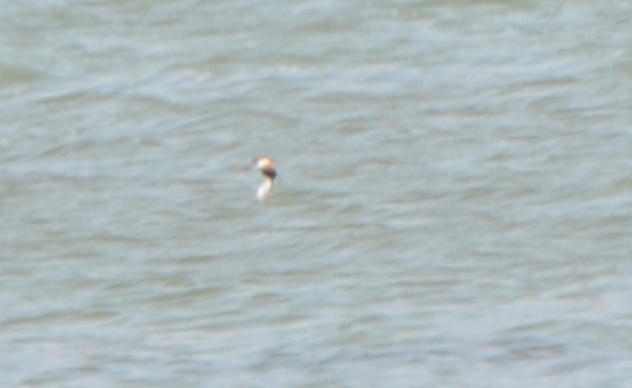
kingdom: Animalia
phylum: Chordata
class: Aves
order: Podicipediformes
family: Podicipedidae
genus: Podiceps
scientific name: Podiceps cristatus
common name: Great crested grebe
